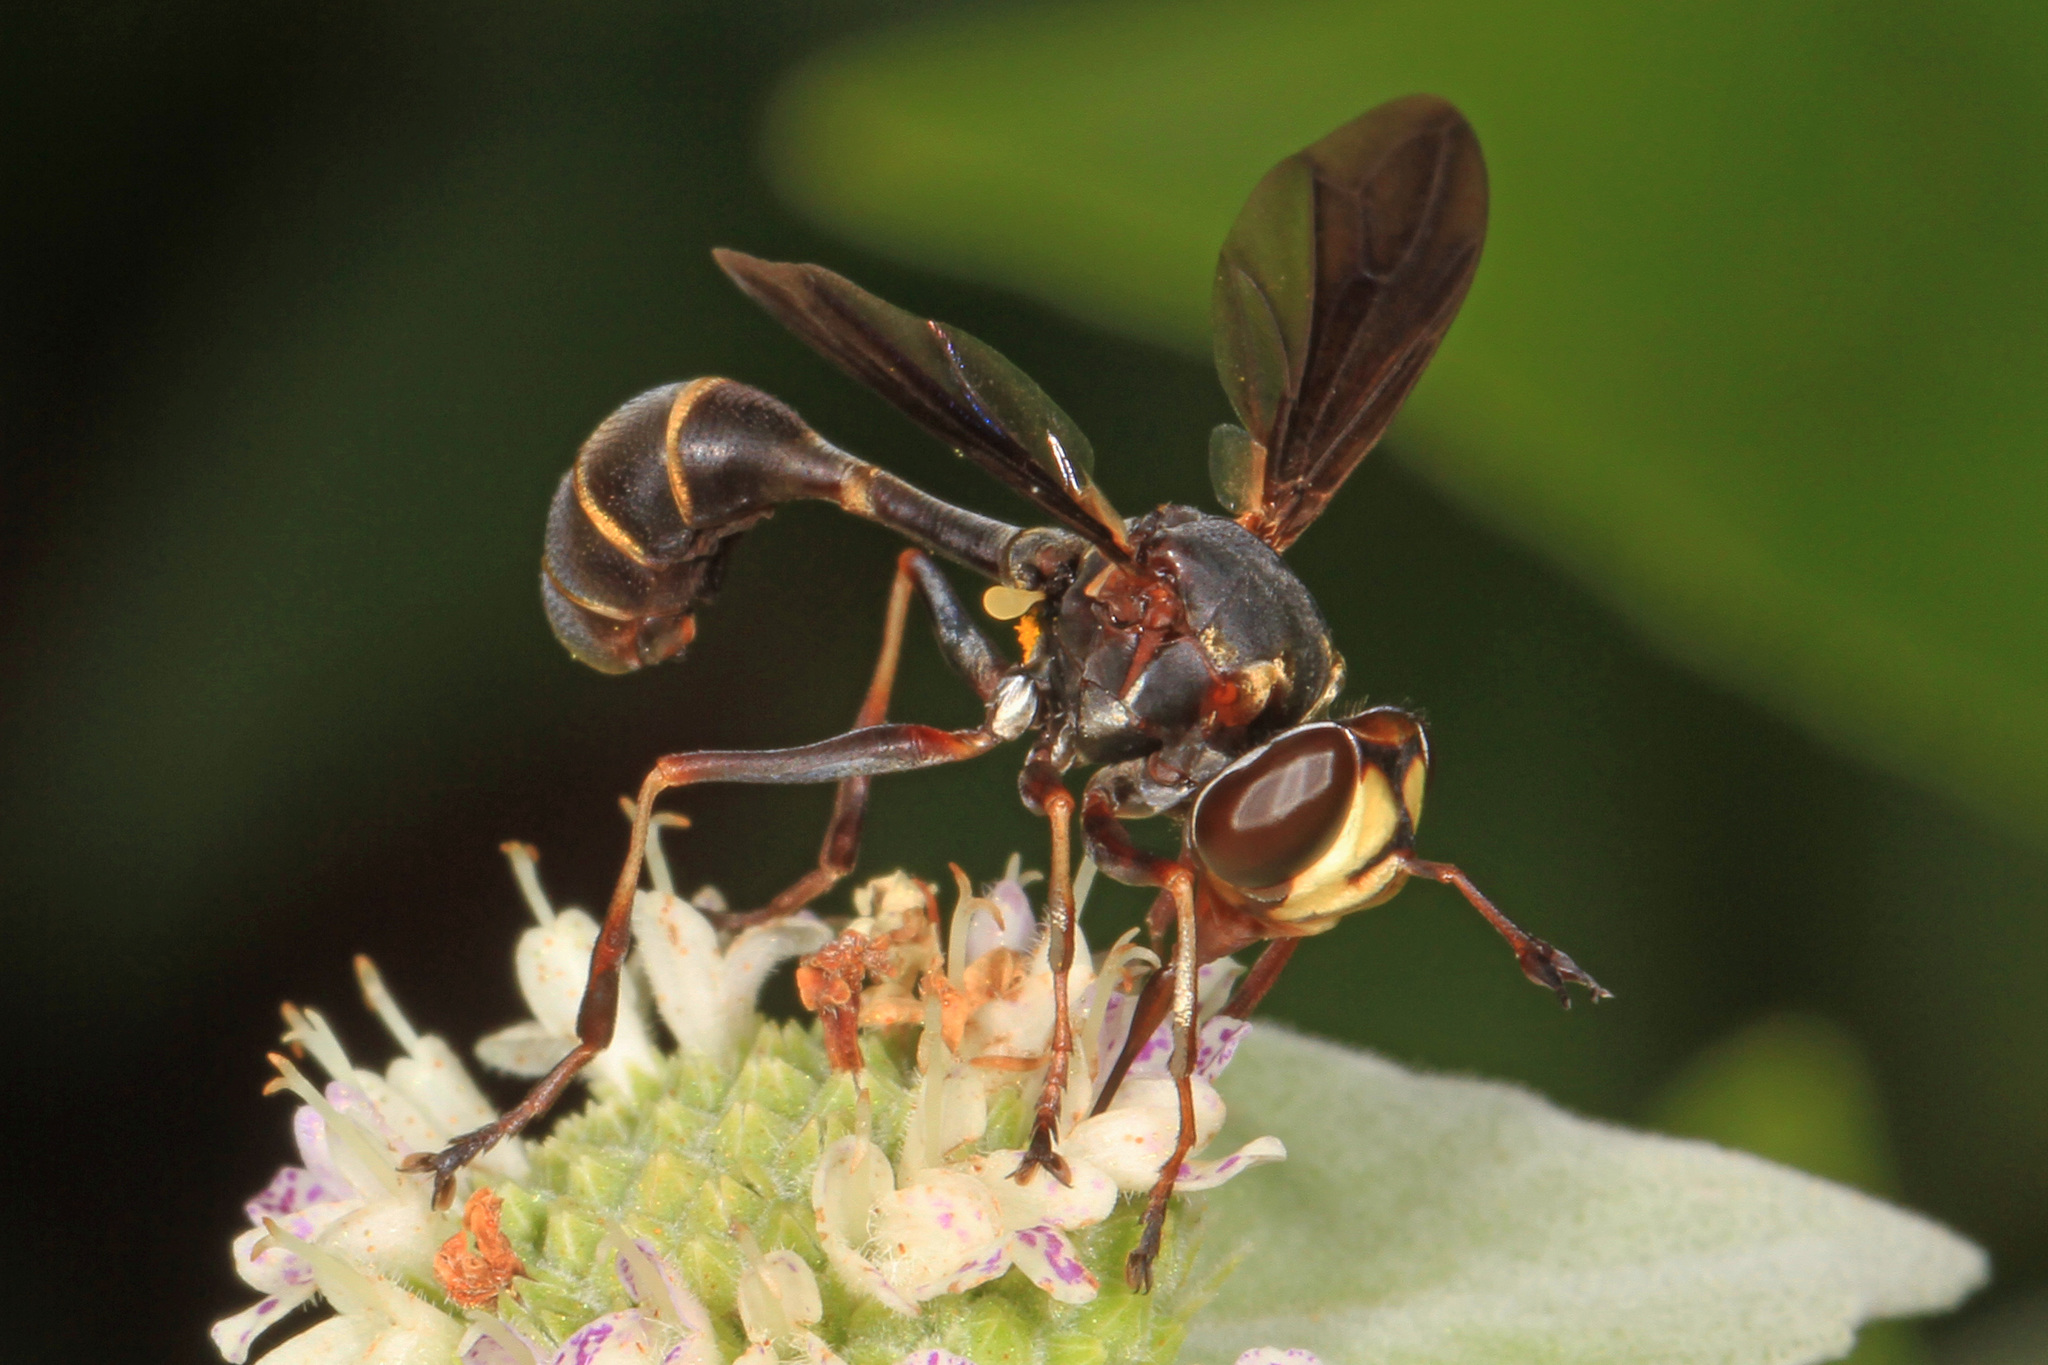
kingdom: Animalia
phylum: Arthropoda
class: Insecta
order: Diptera
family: Conopidae
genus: Physocephala
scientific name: Physocephala sagittaria
